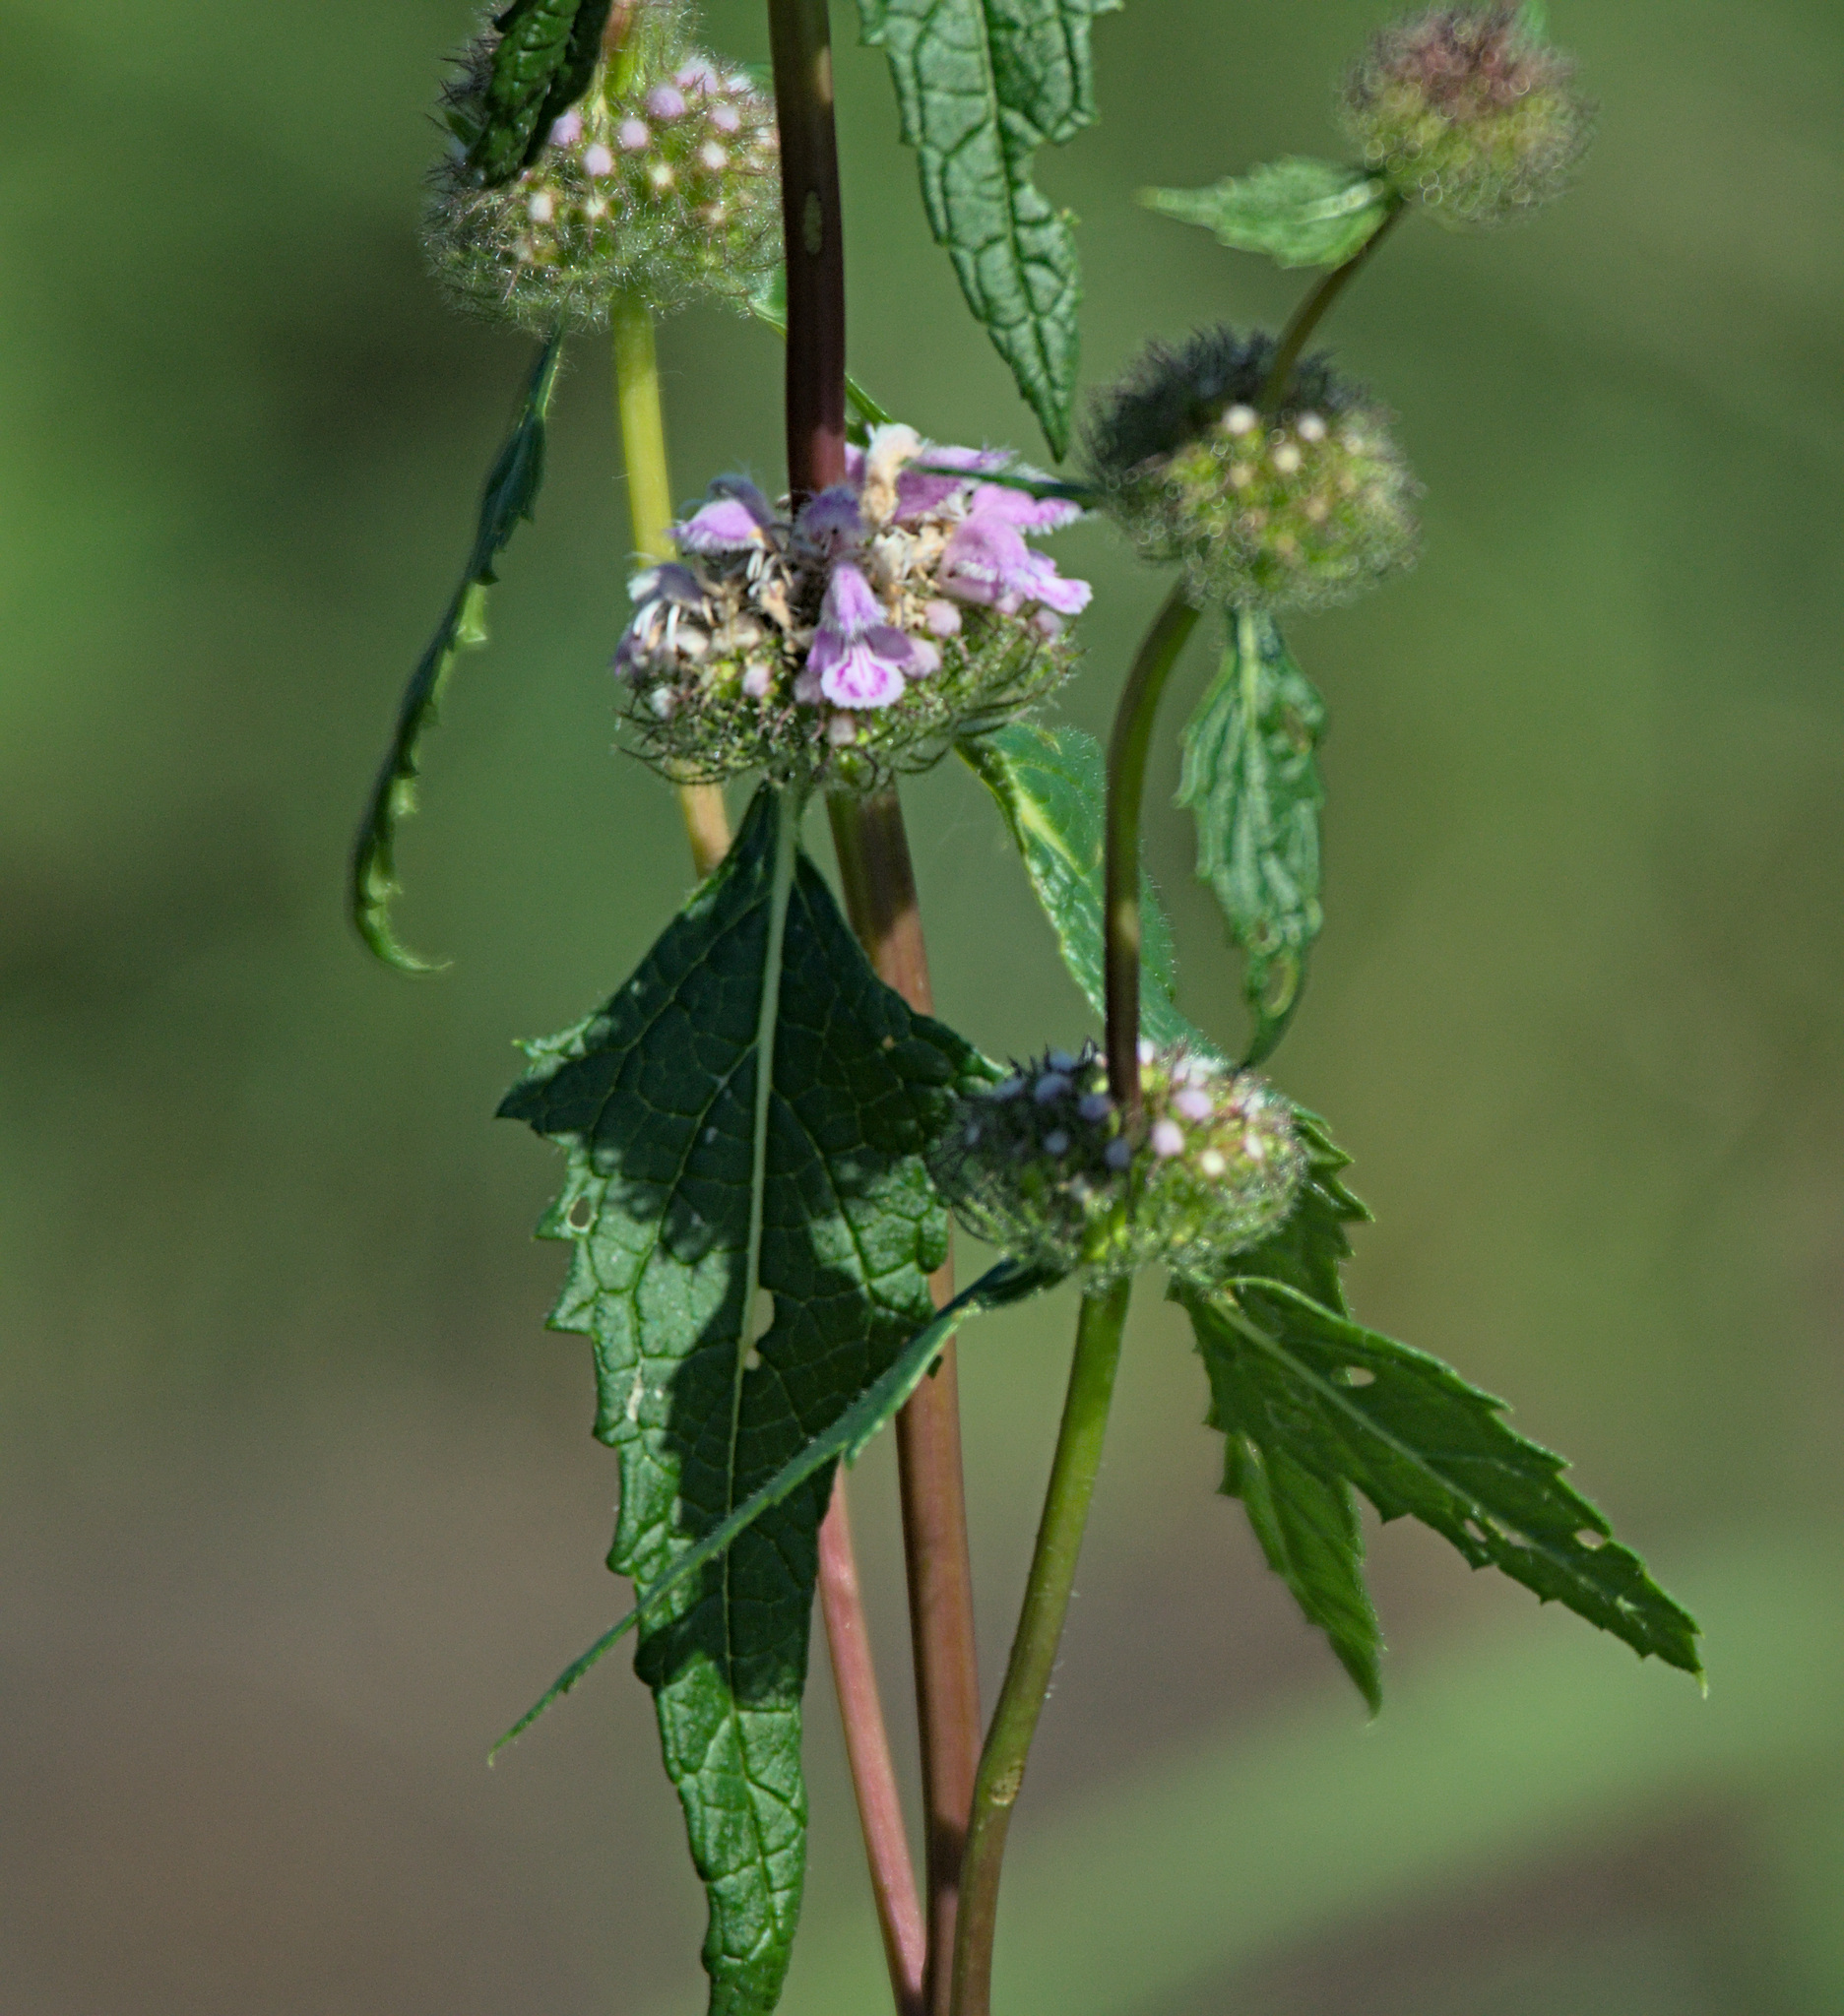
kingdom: Plantae
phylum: Tracheophyta
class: Magnoliopsida
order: Lamiales
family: Lamiaceae
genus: Phlomoides
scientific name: Phlomoides tuberosa
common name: Tuberous jerusalem sage
